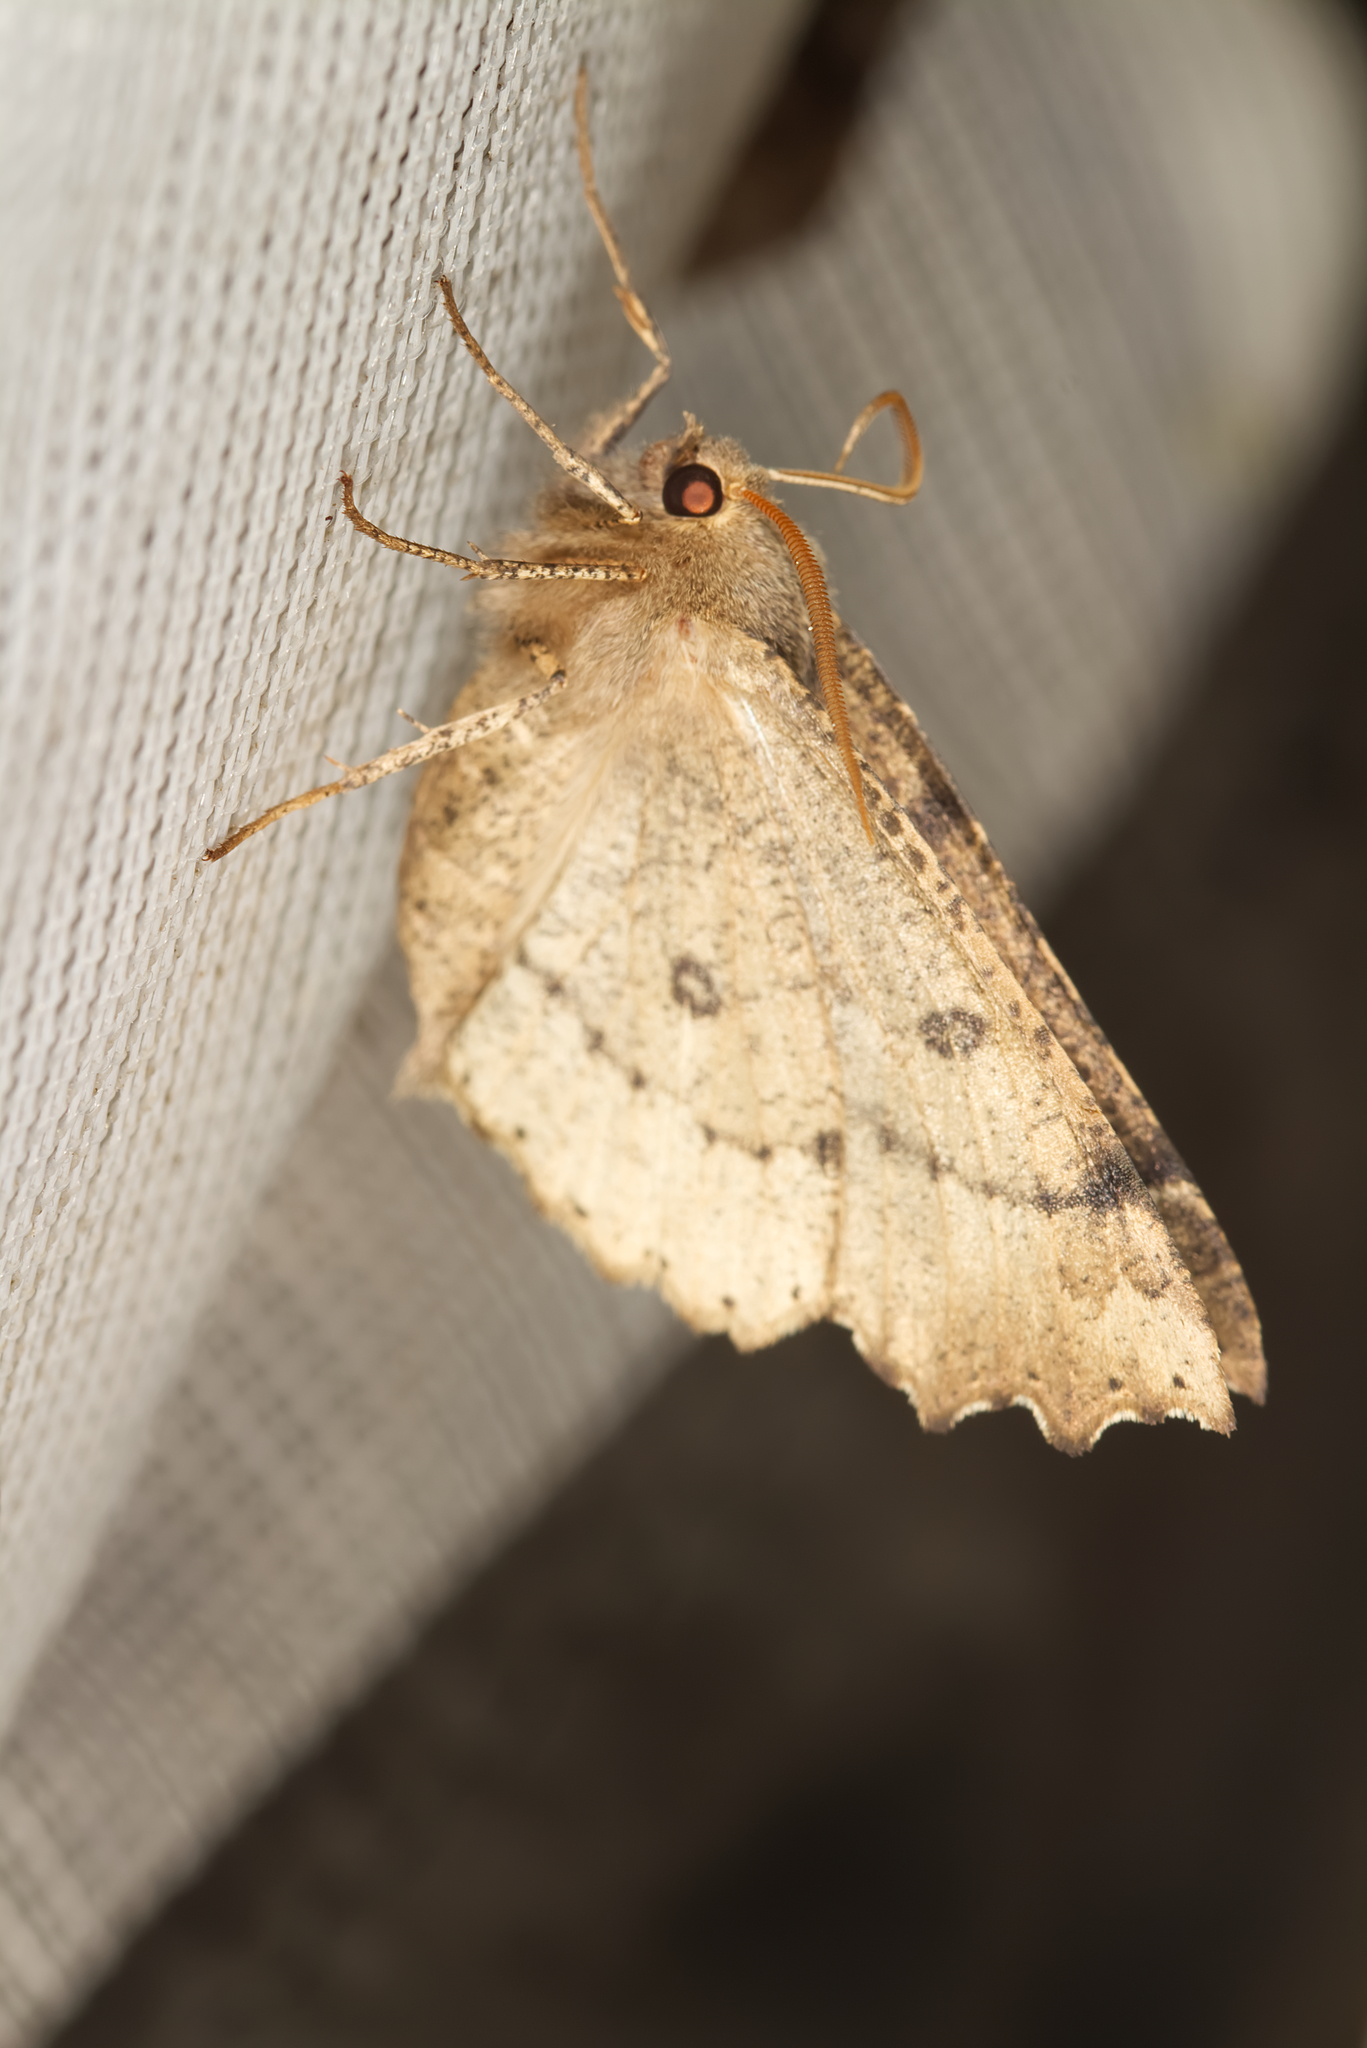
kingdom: Animalia
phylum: Arthropoda
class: Insecta
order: Lepidoptera
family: Geometridae
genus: Odontopera
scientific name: Odontopera bidentata
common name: Scalloped hazel
